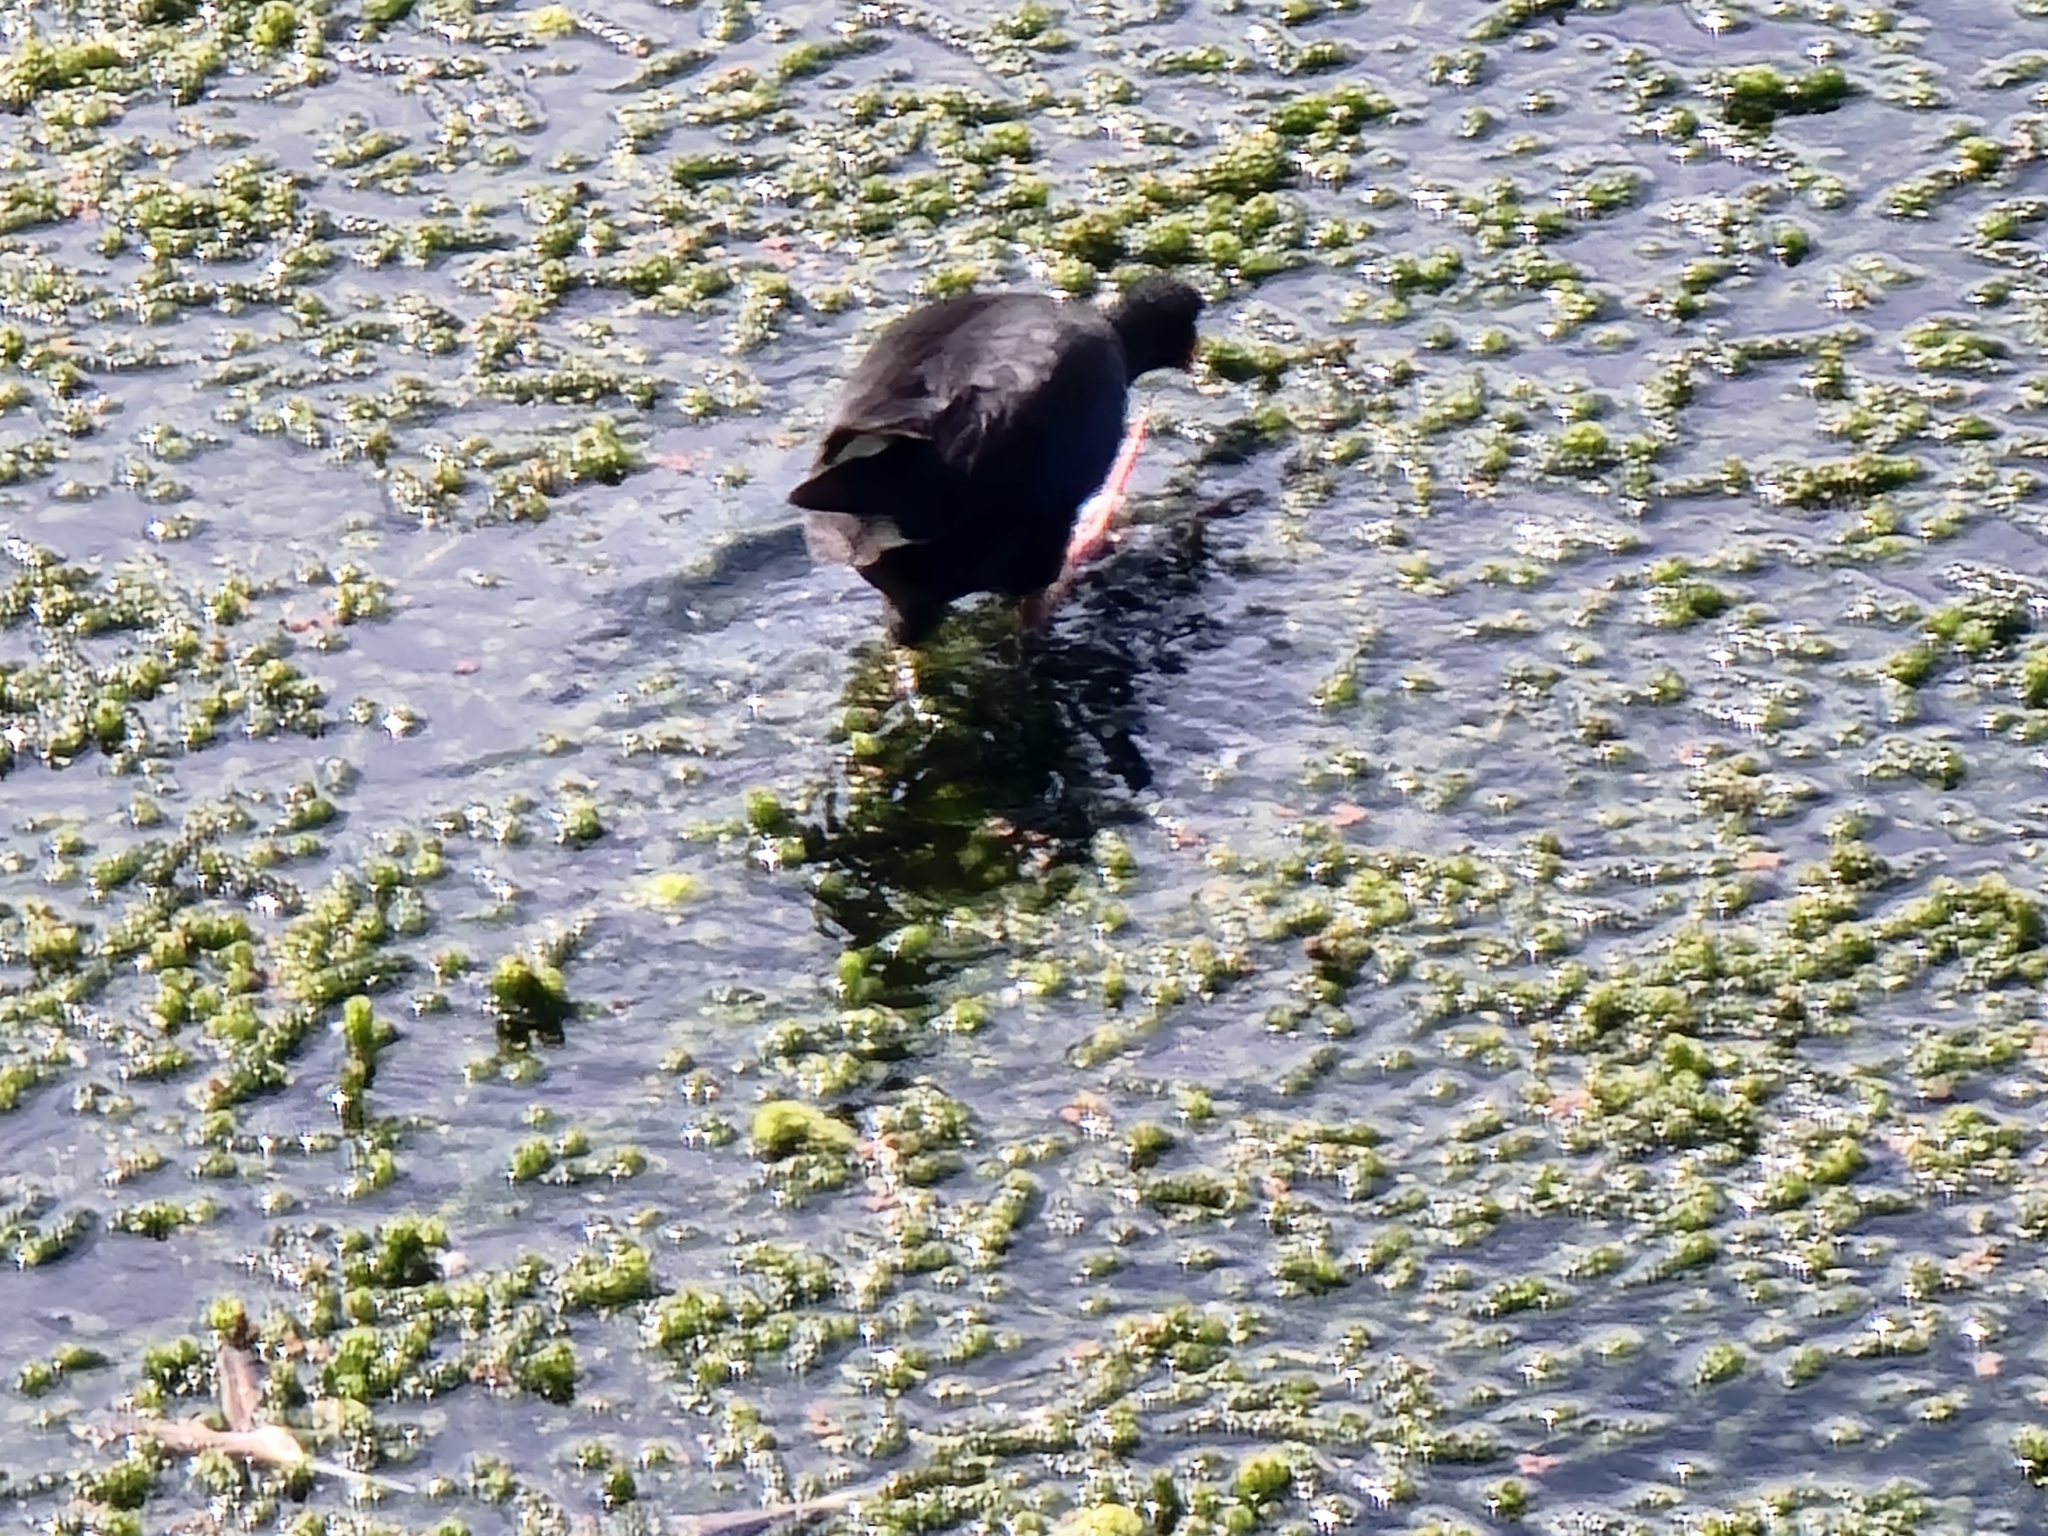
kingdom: Animalia
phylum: Chordata
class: Aves
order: Gruiformes
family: Rallidae
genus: Porphyrio
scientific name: Porphyrio melanotus
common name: Australasian swamphen
